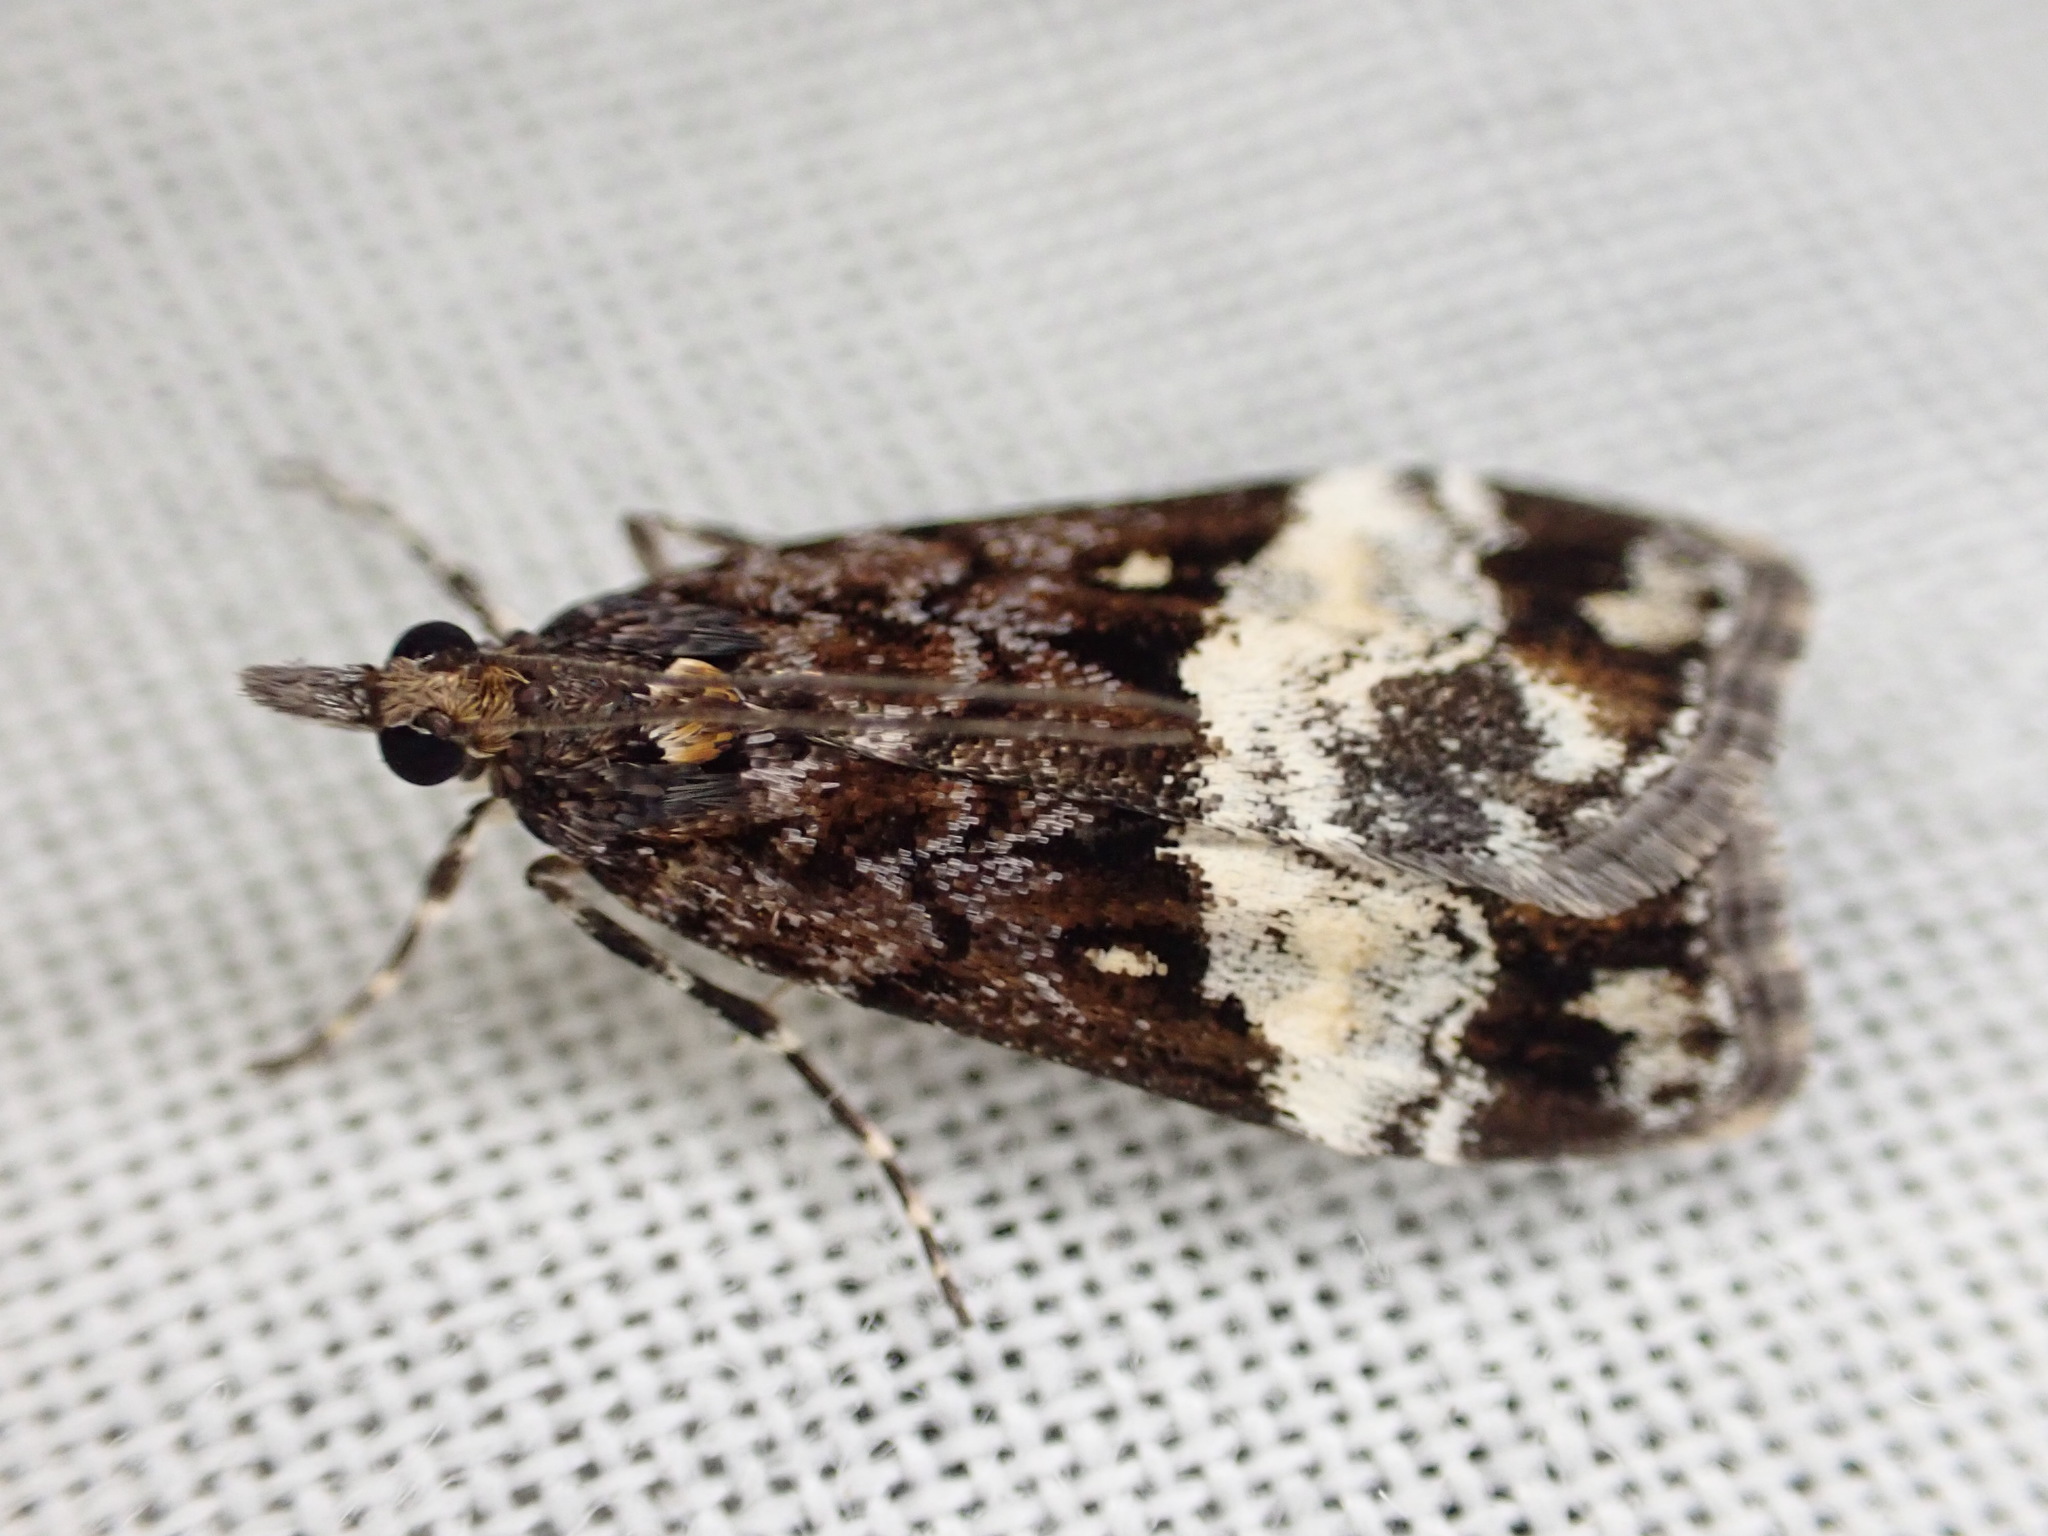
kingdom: Animalia
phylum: Arthropoda
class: Insecta
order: Lepidoptera
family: Crambidae
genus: Scoparia
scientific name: Scoparia minusculalis
